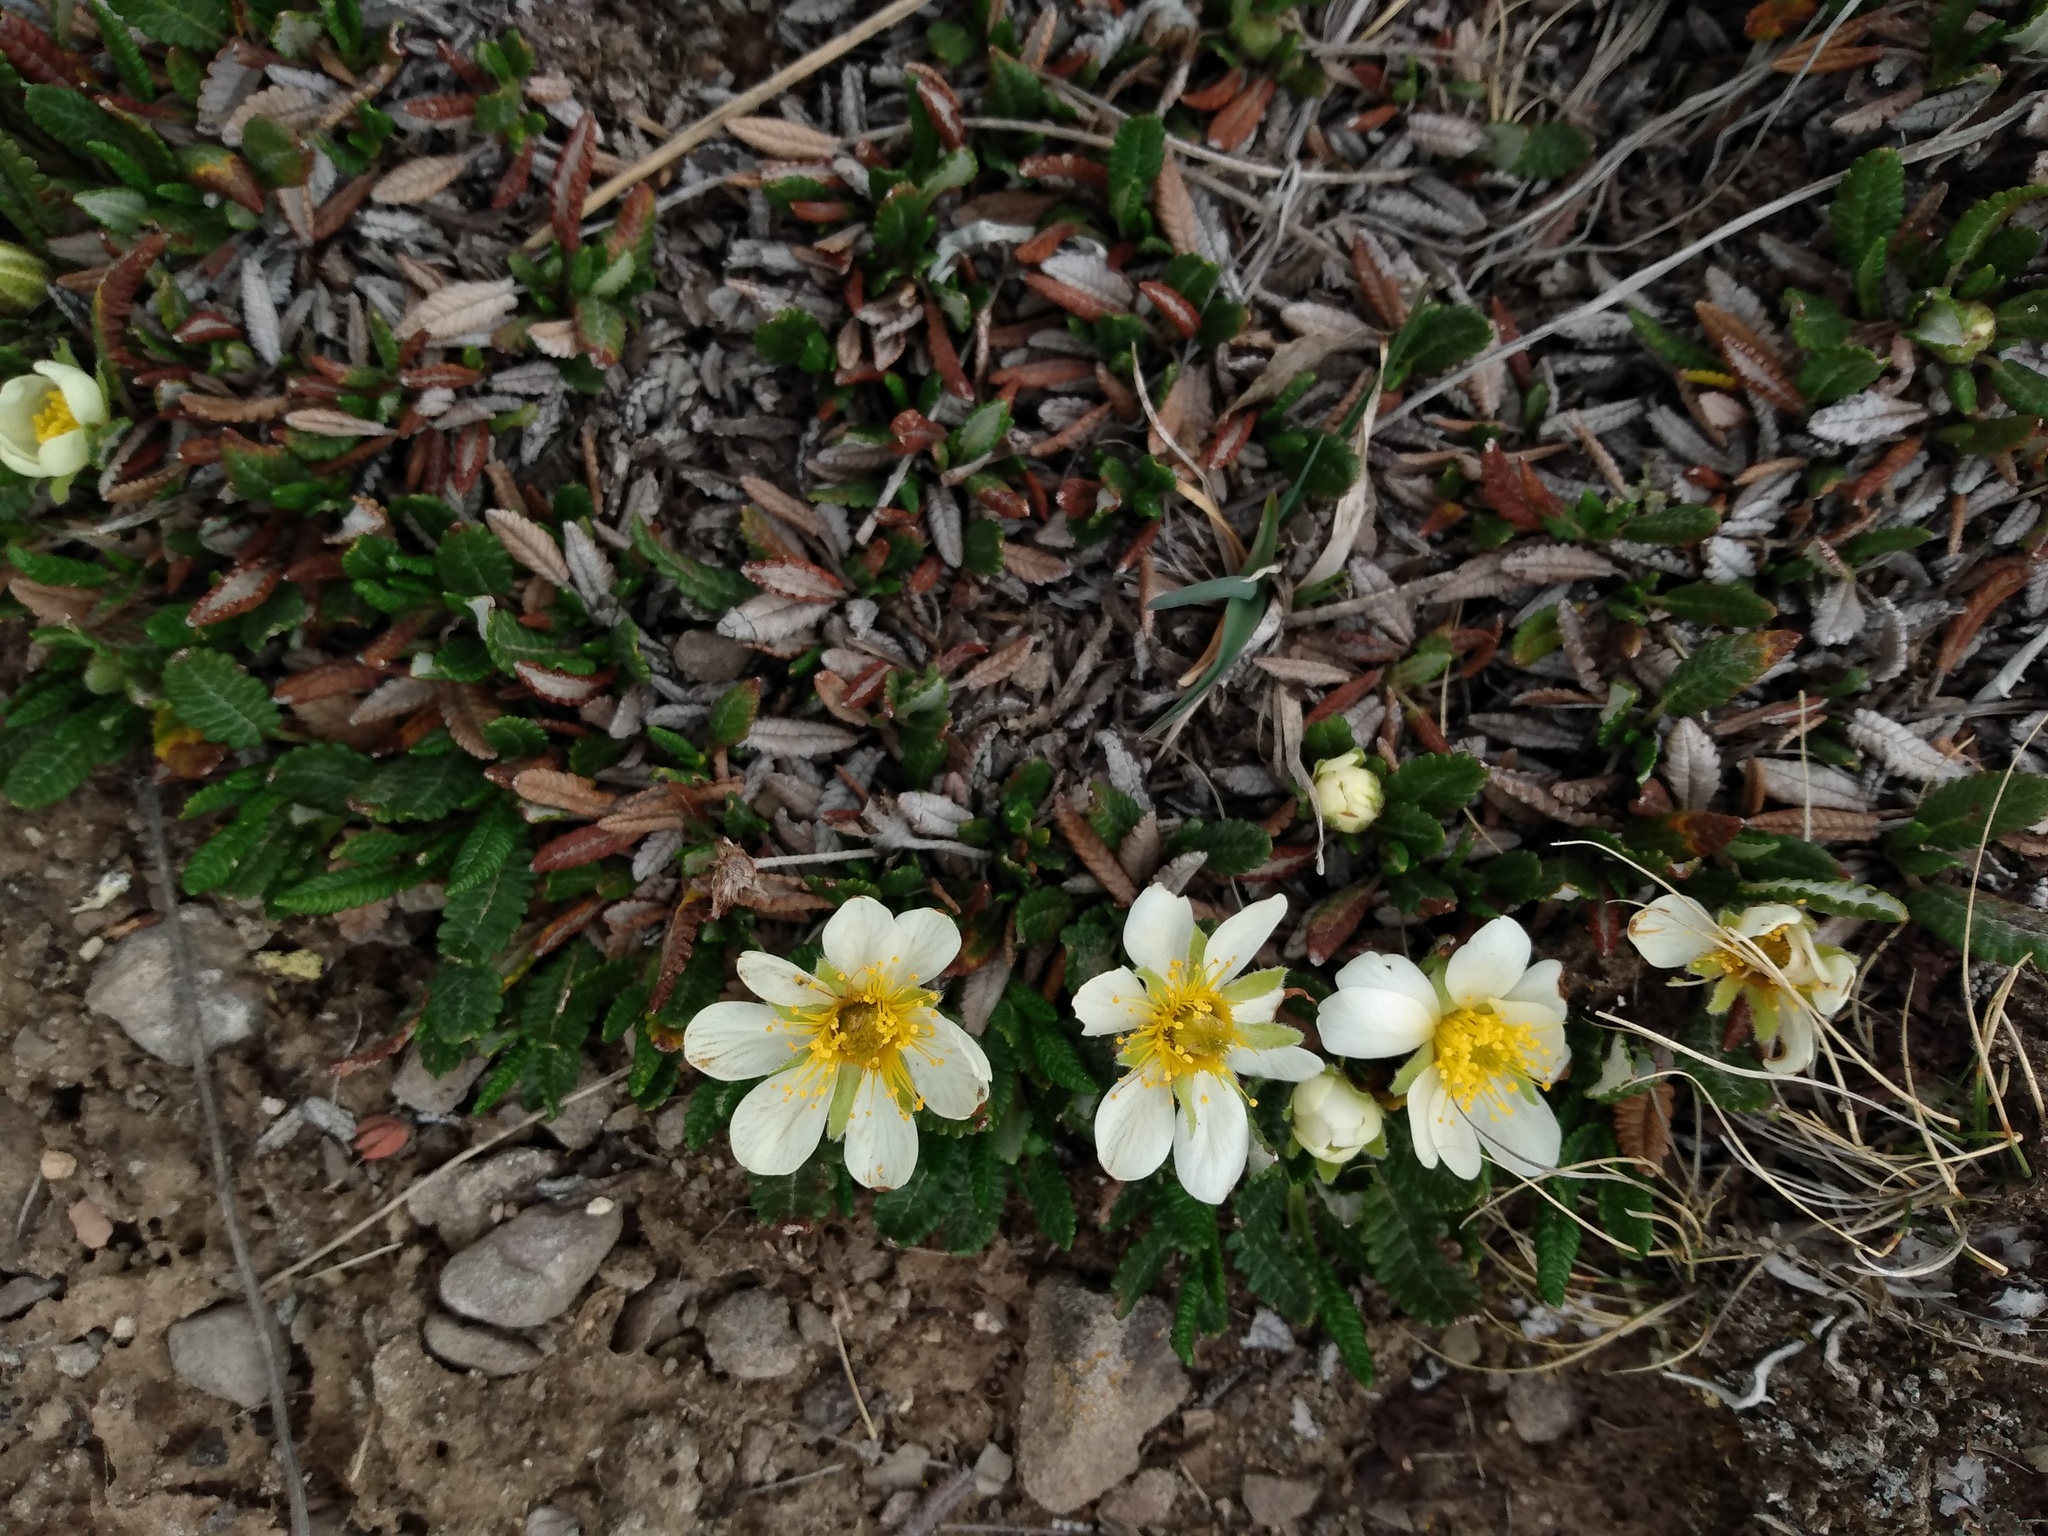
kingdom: Plantae
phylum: Tracheophyta
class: Magnoliopsida
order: Rosales
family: Rosaceae
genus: Dryas
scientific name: Dryas octopetala
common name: Eight-petal mountain-avens
